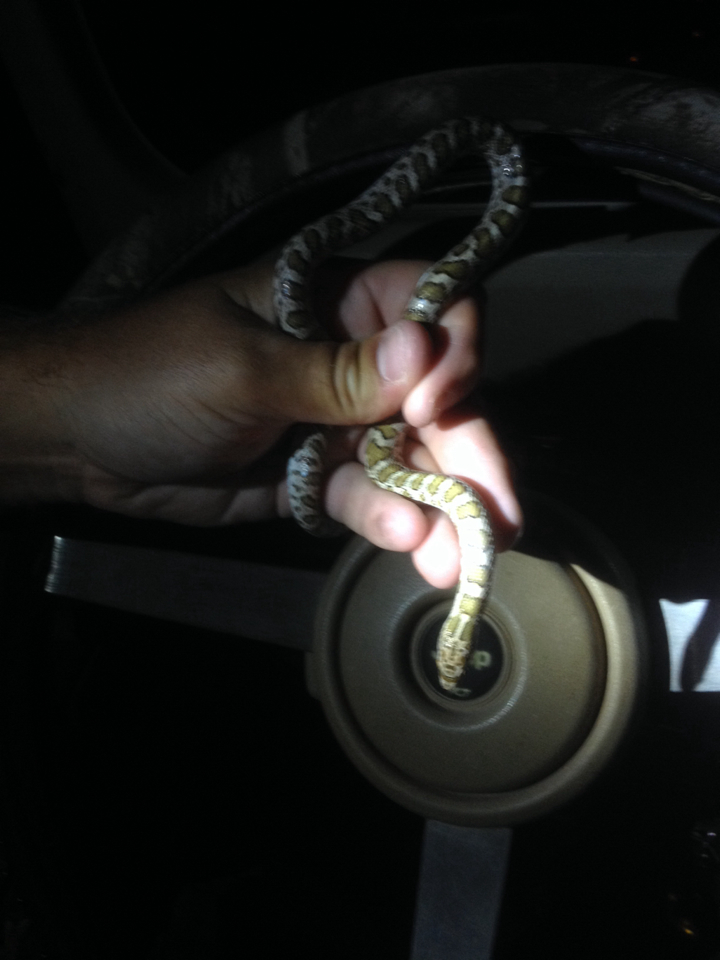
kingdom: Animalia
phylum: Chordata
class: Squamata
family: Colubridae
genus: Arizona
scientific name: Arizona elegans
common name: Glossy snake
